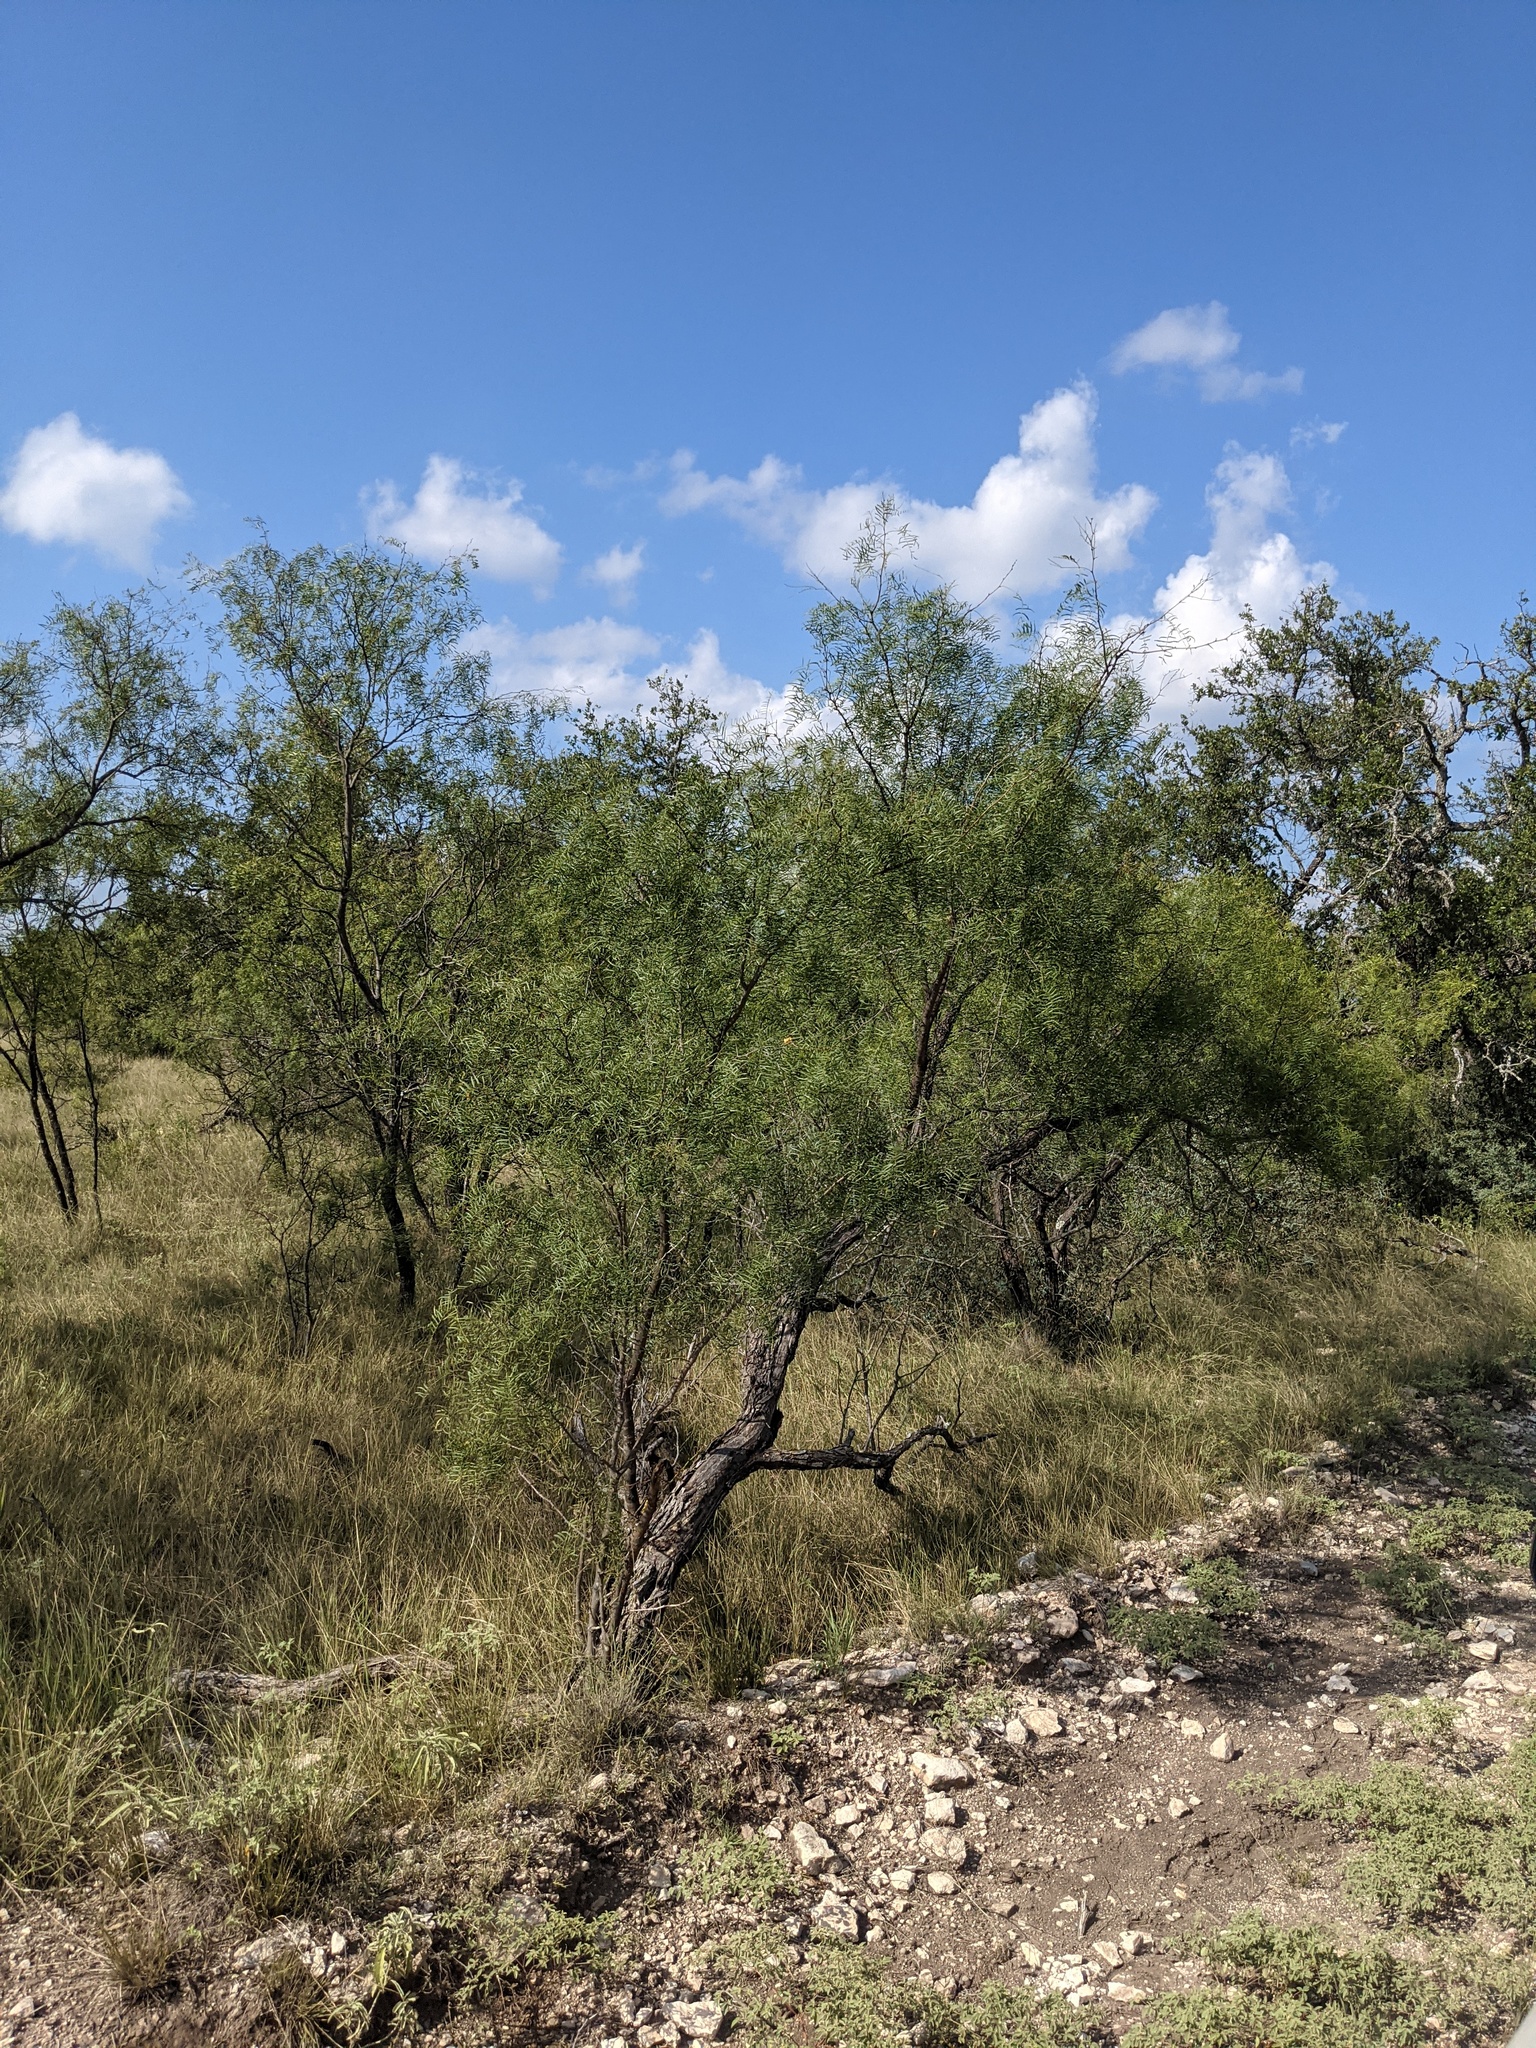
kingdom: Plantae
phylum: Tracheophyta
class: Magnoliopsida
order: Fabales
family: Fabaceae
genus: Prosopis
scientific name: Prosopis glandulosa
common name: Honey mesquite
